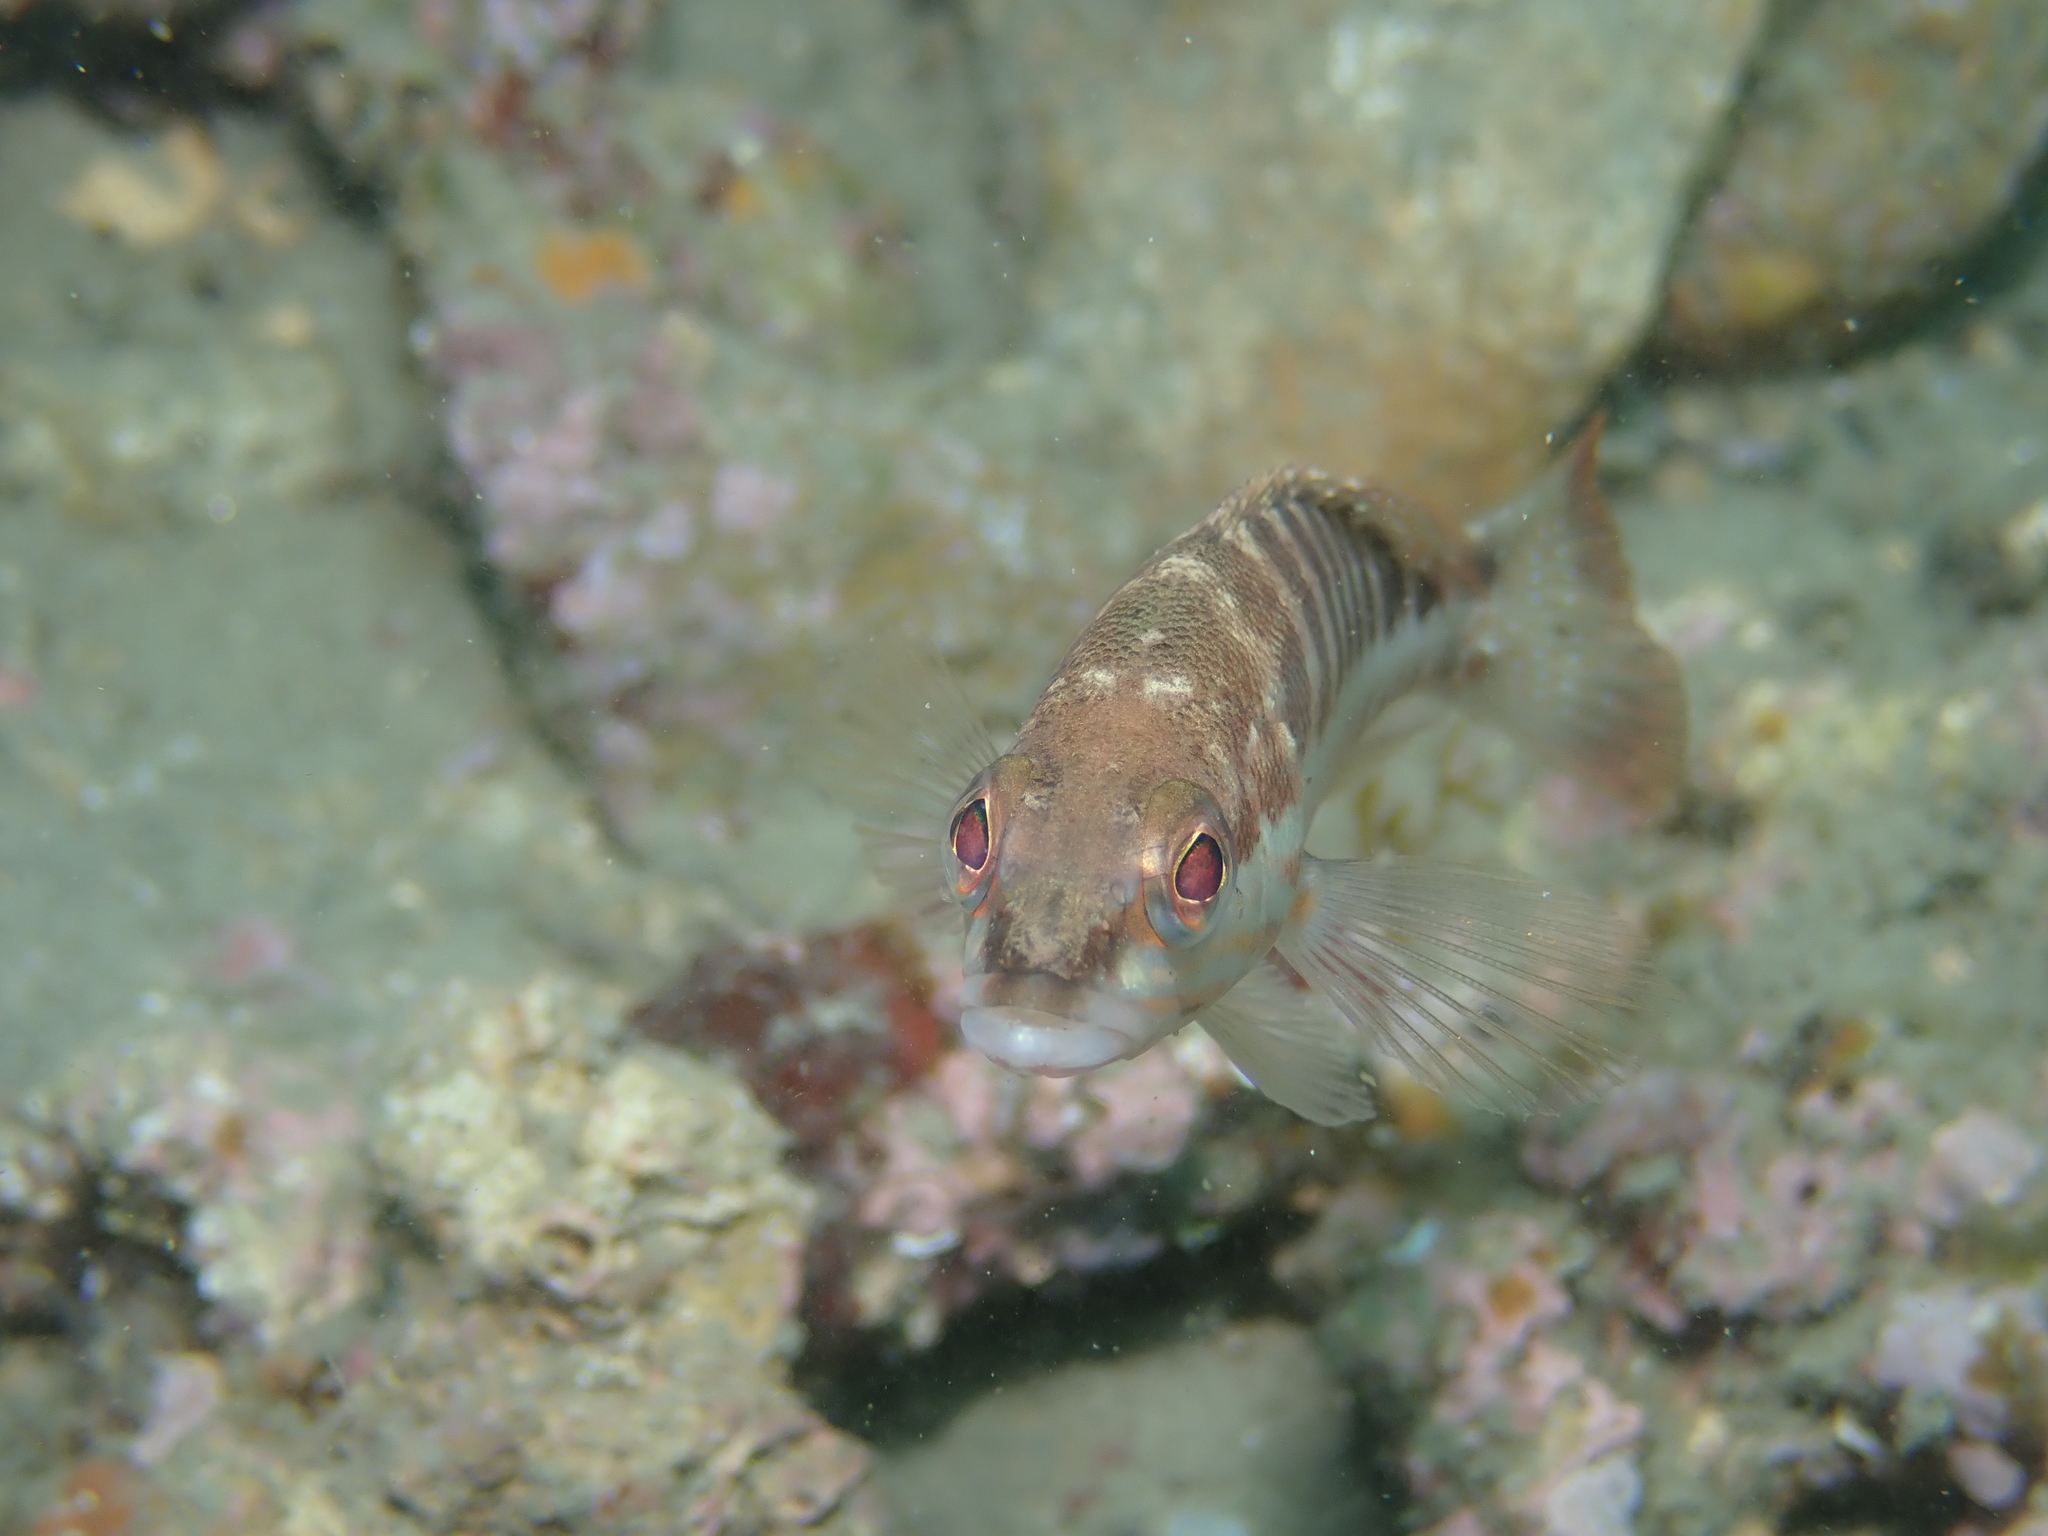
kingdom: Animalia
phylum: Chordata
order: Perciformes
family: Serranidae
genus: Serranus
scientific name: Serranus cabrilla
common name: Comber
